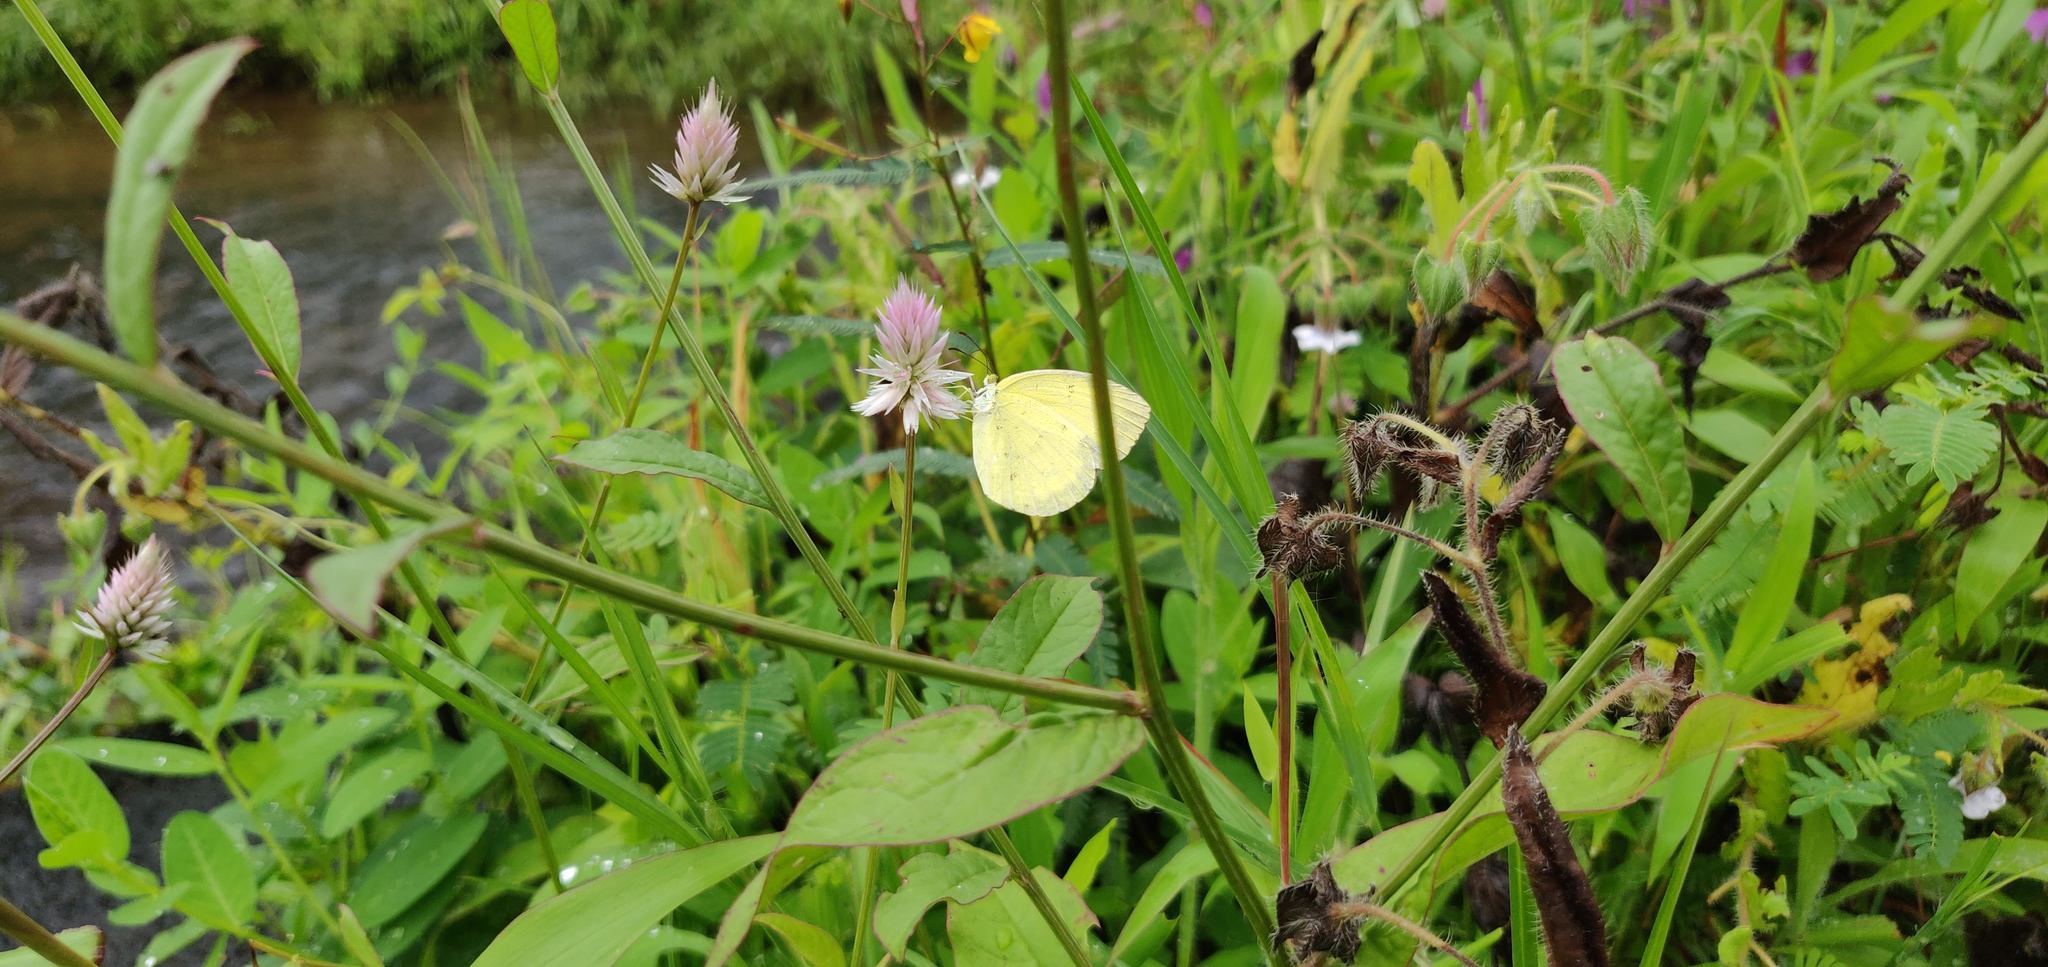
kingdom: Plantae
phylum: Tracheophyta
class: Magnoliopsida
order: Caryophyllales
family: Amaranthaceae
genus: Celosia
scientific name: Celosia argentea
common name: Feather cockscomb
